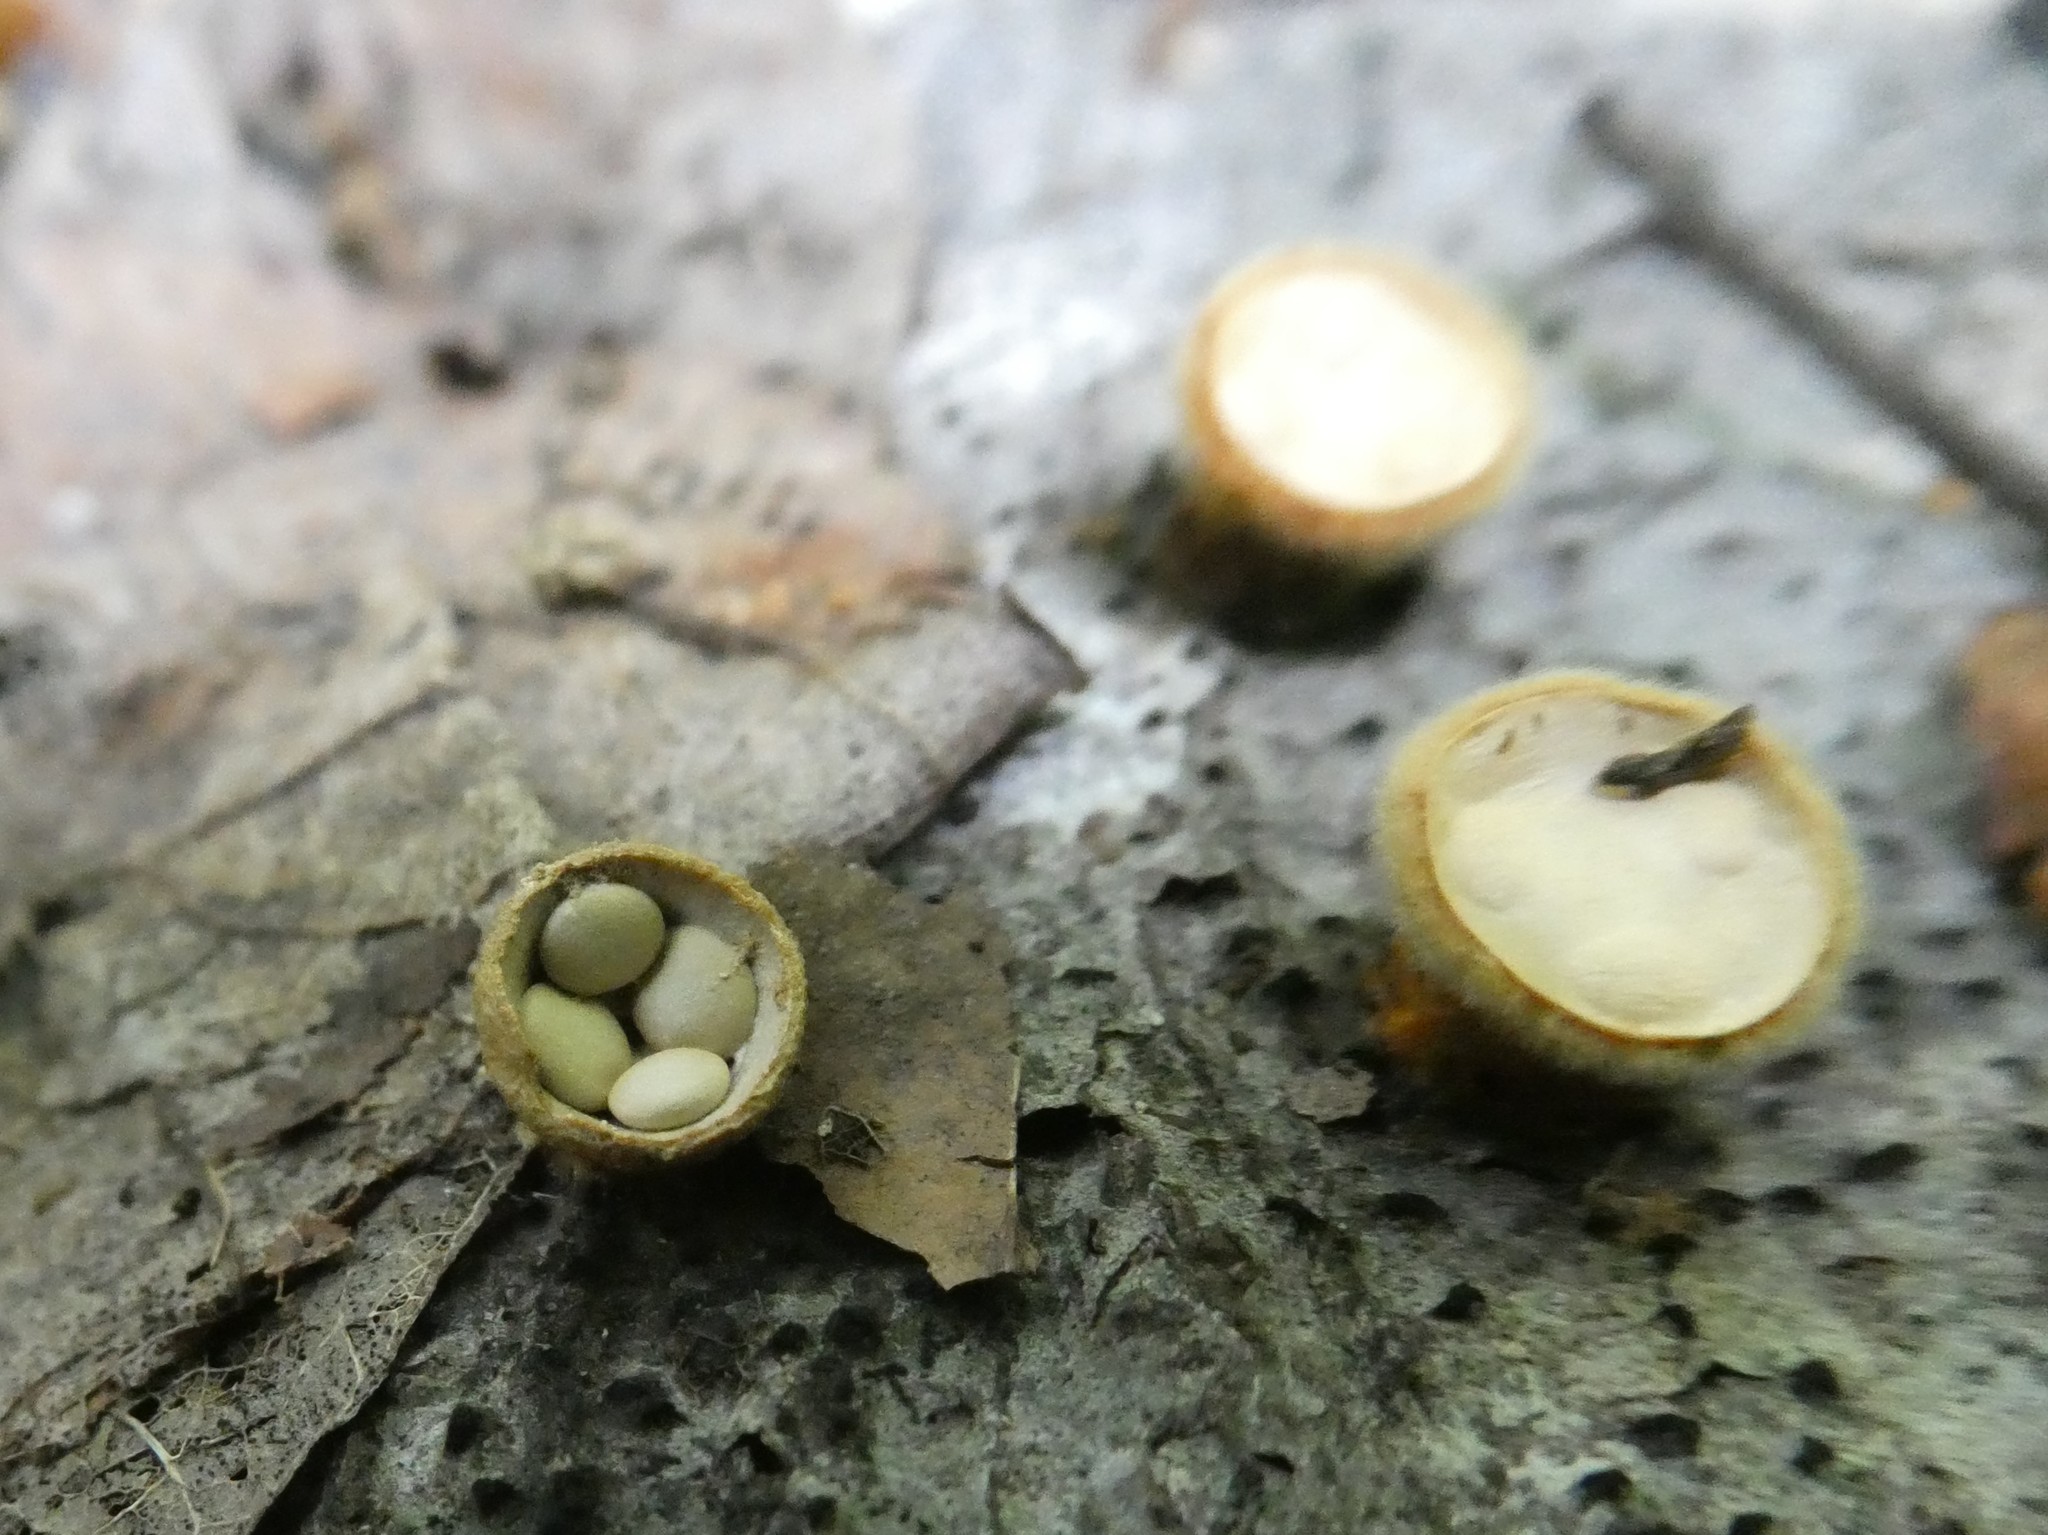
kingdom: Fungi
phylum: Basidiomycota
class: Agaricomycetes
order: Agaricales
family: Nidulariaceae
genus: Crucibulum
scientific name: Crucibulum laeve
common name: Common bird's nest
